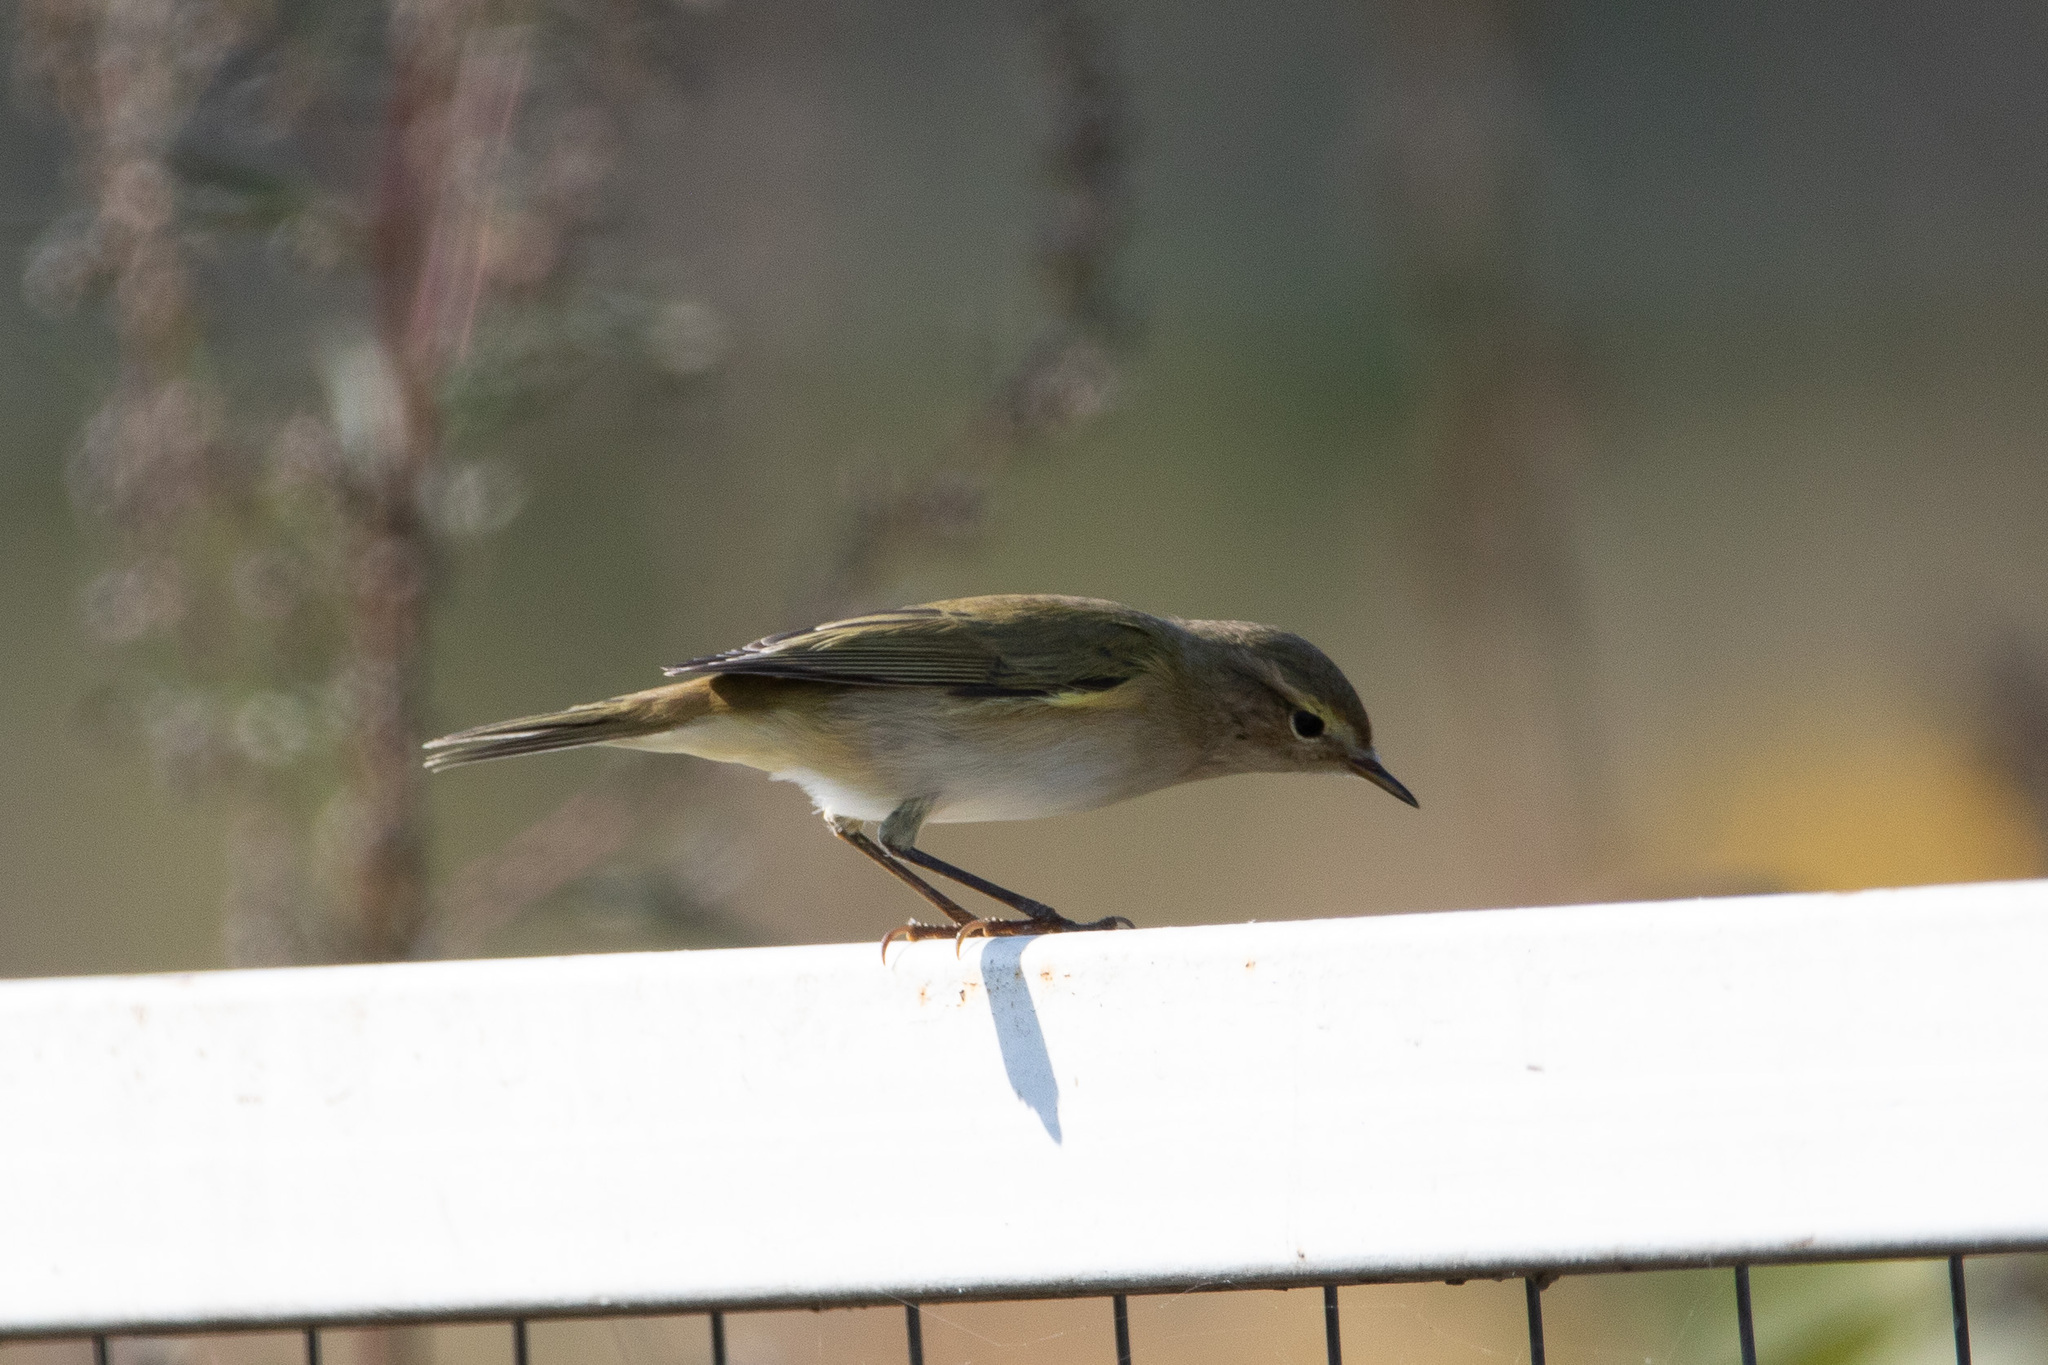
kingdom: Animalia
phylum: Chordata
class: Aves
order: Passeriformes
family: Phylloscopidae
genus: Phylloscopus
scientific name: Phylloscopus collybita
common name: Common chiffchaff
